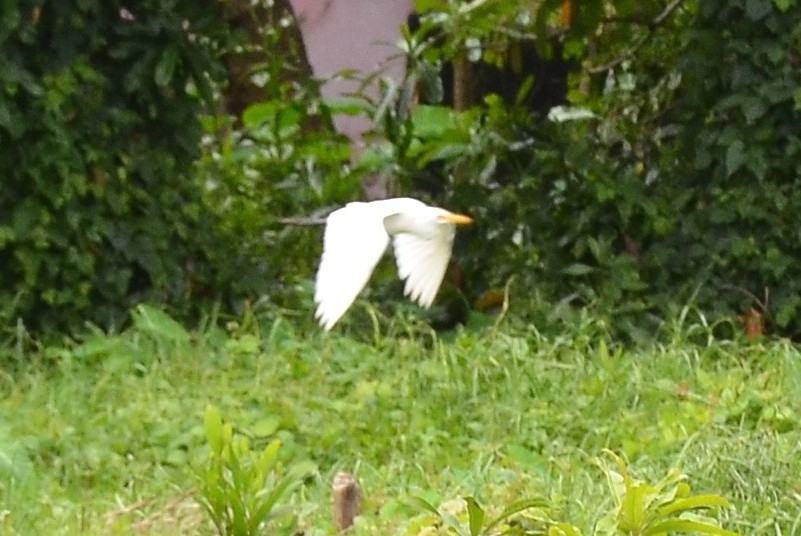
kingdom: Animalia
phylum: Chordata
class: Aves
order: Pelecaniformes
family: Ardeidae
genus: Bubulcus
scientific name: Bubulcus coromandus
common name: Eastern cattle egret
